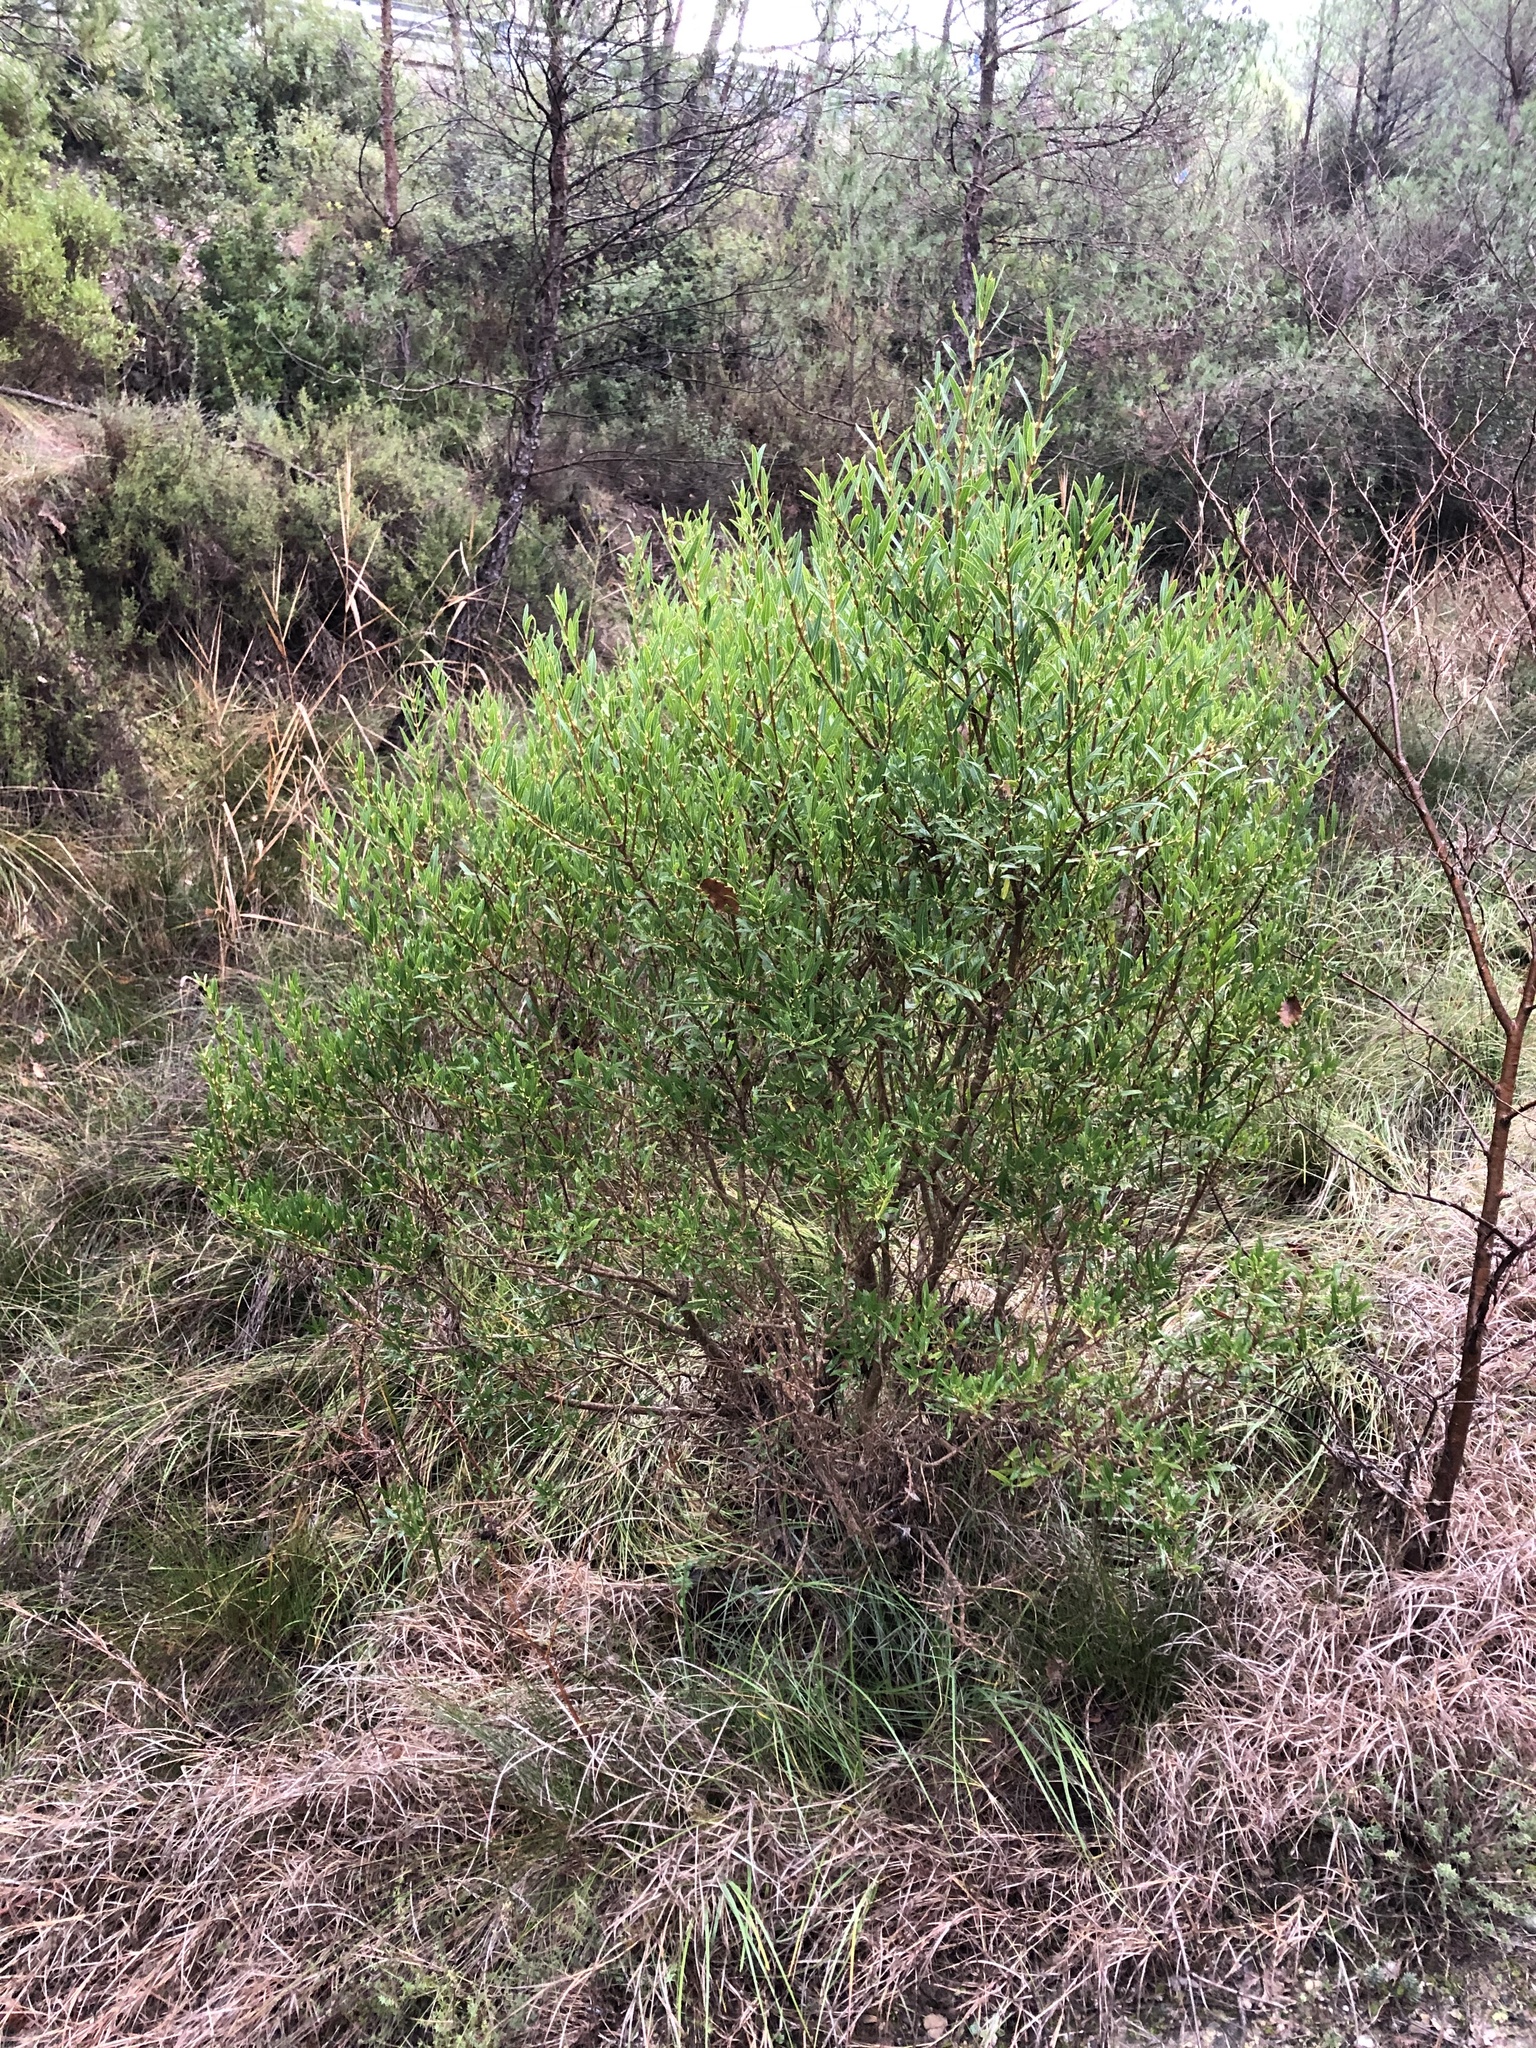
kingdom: Plantae
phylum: Tracheophyta
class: Magnoliopsida
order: Lamiales
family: Oleaceae
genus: Phillyrea
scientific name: Phillyrea angustifolia
